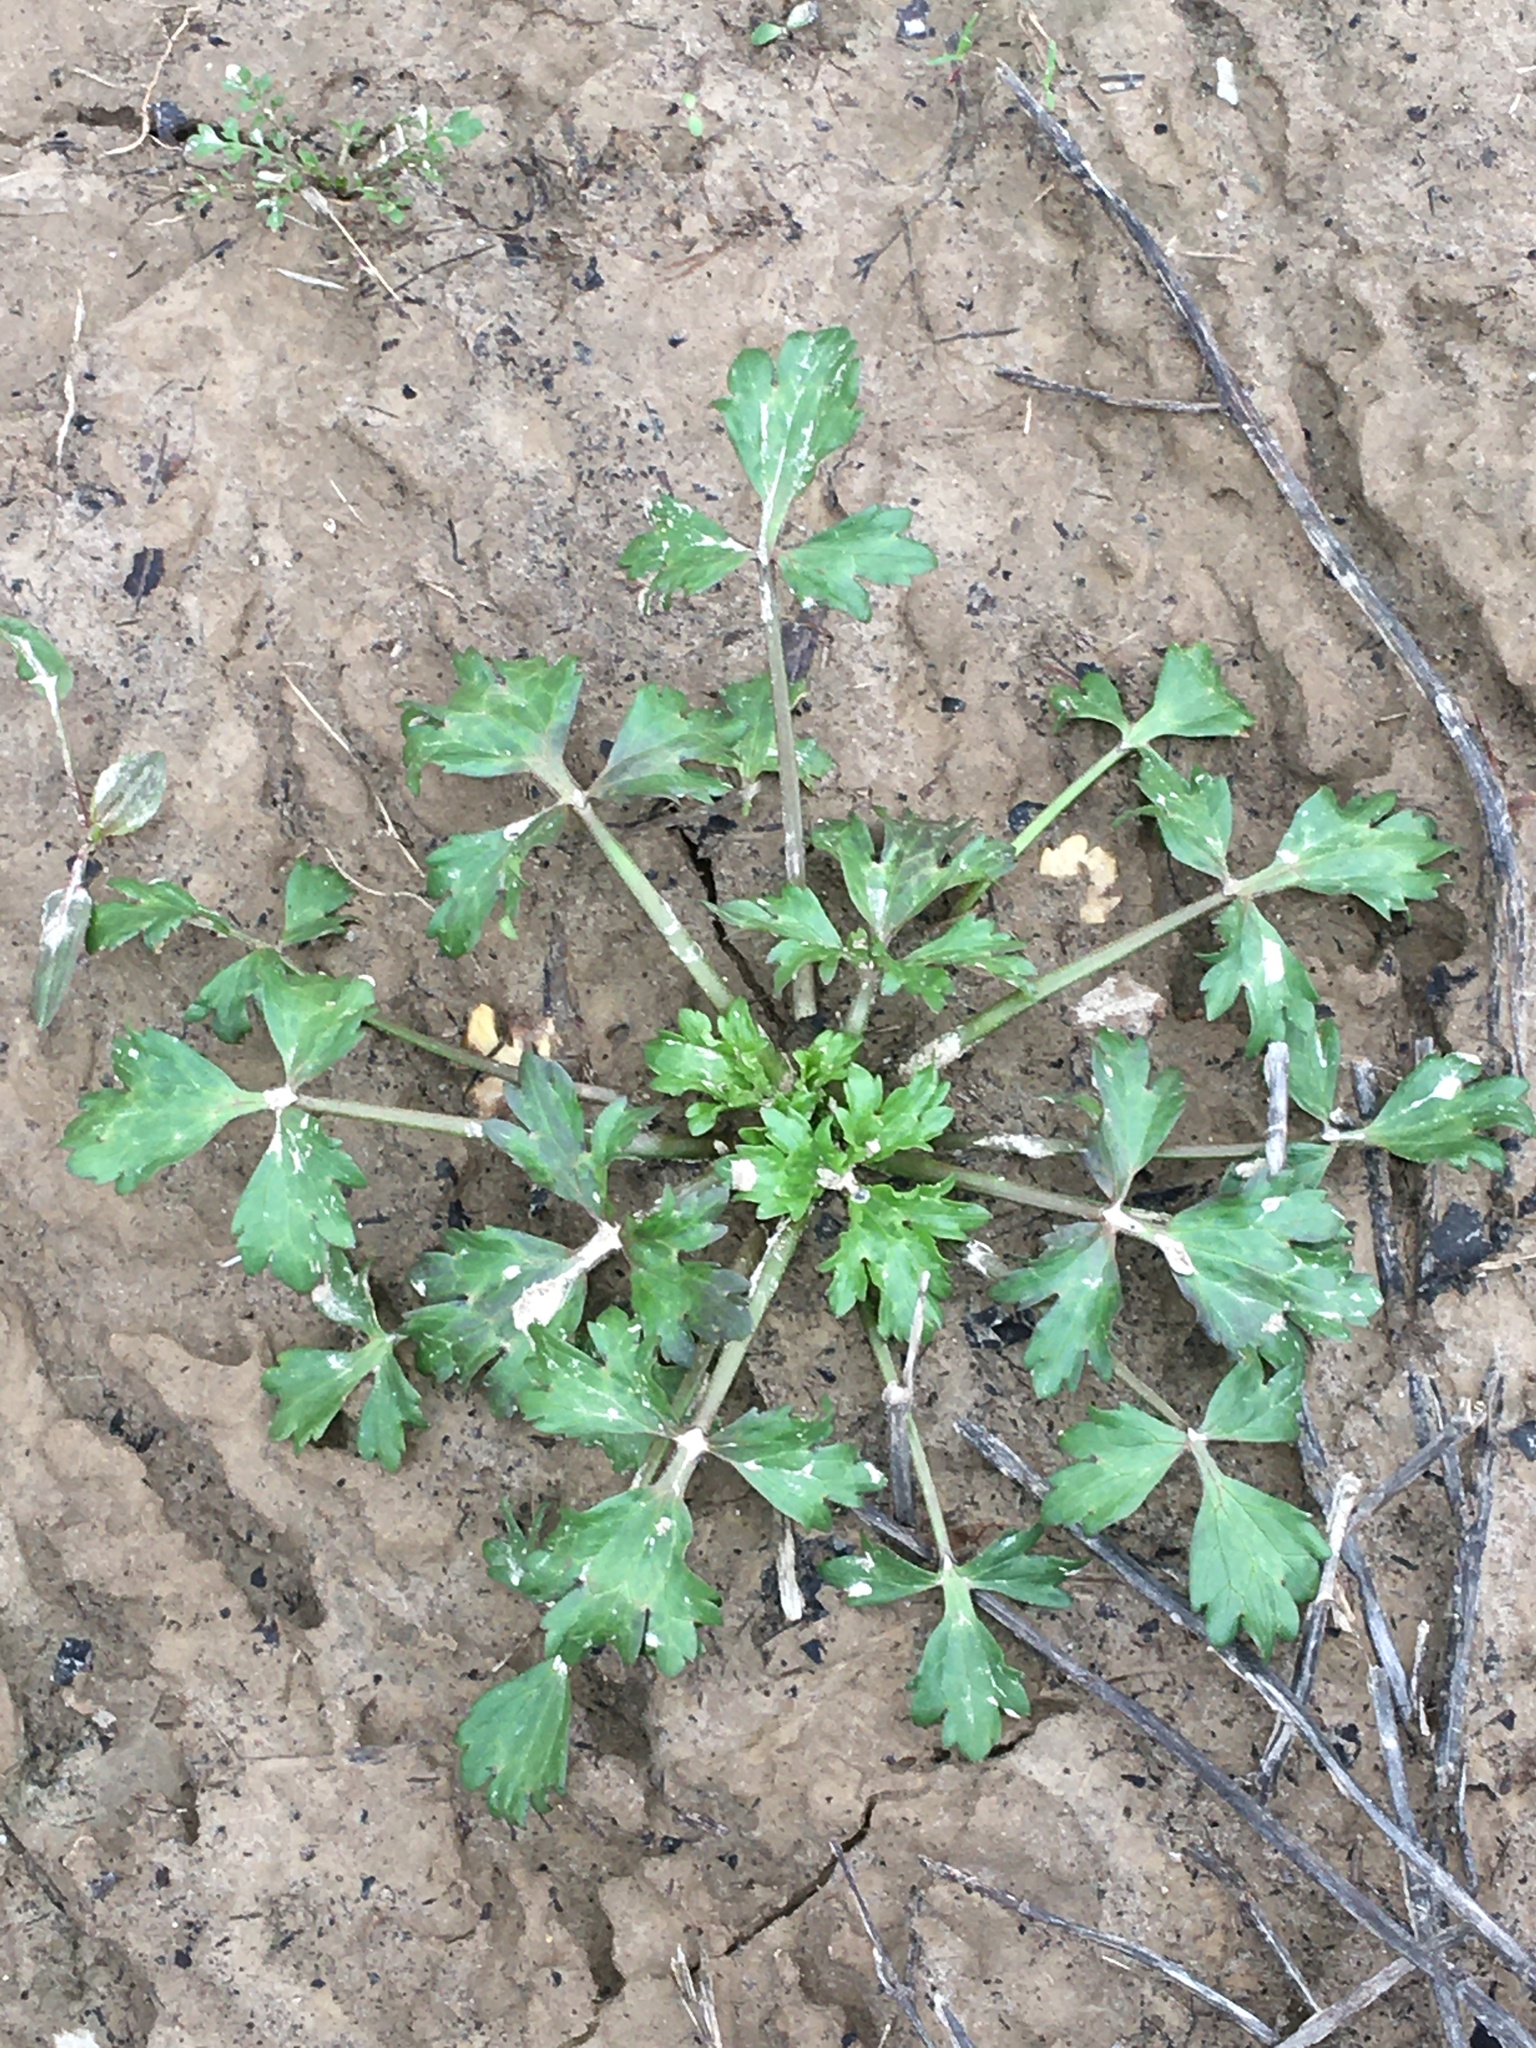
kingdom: Plantae
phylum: Tracheophyta
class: Magnoliopsida
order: Ranunculales
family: Ranunculaceae
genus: Ranunculus
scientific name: Ranunculus hispidus
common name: Bristly buttercup
